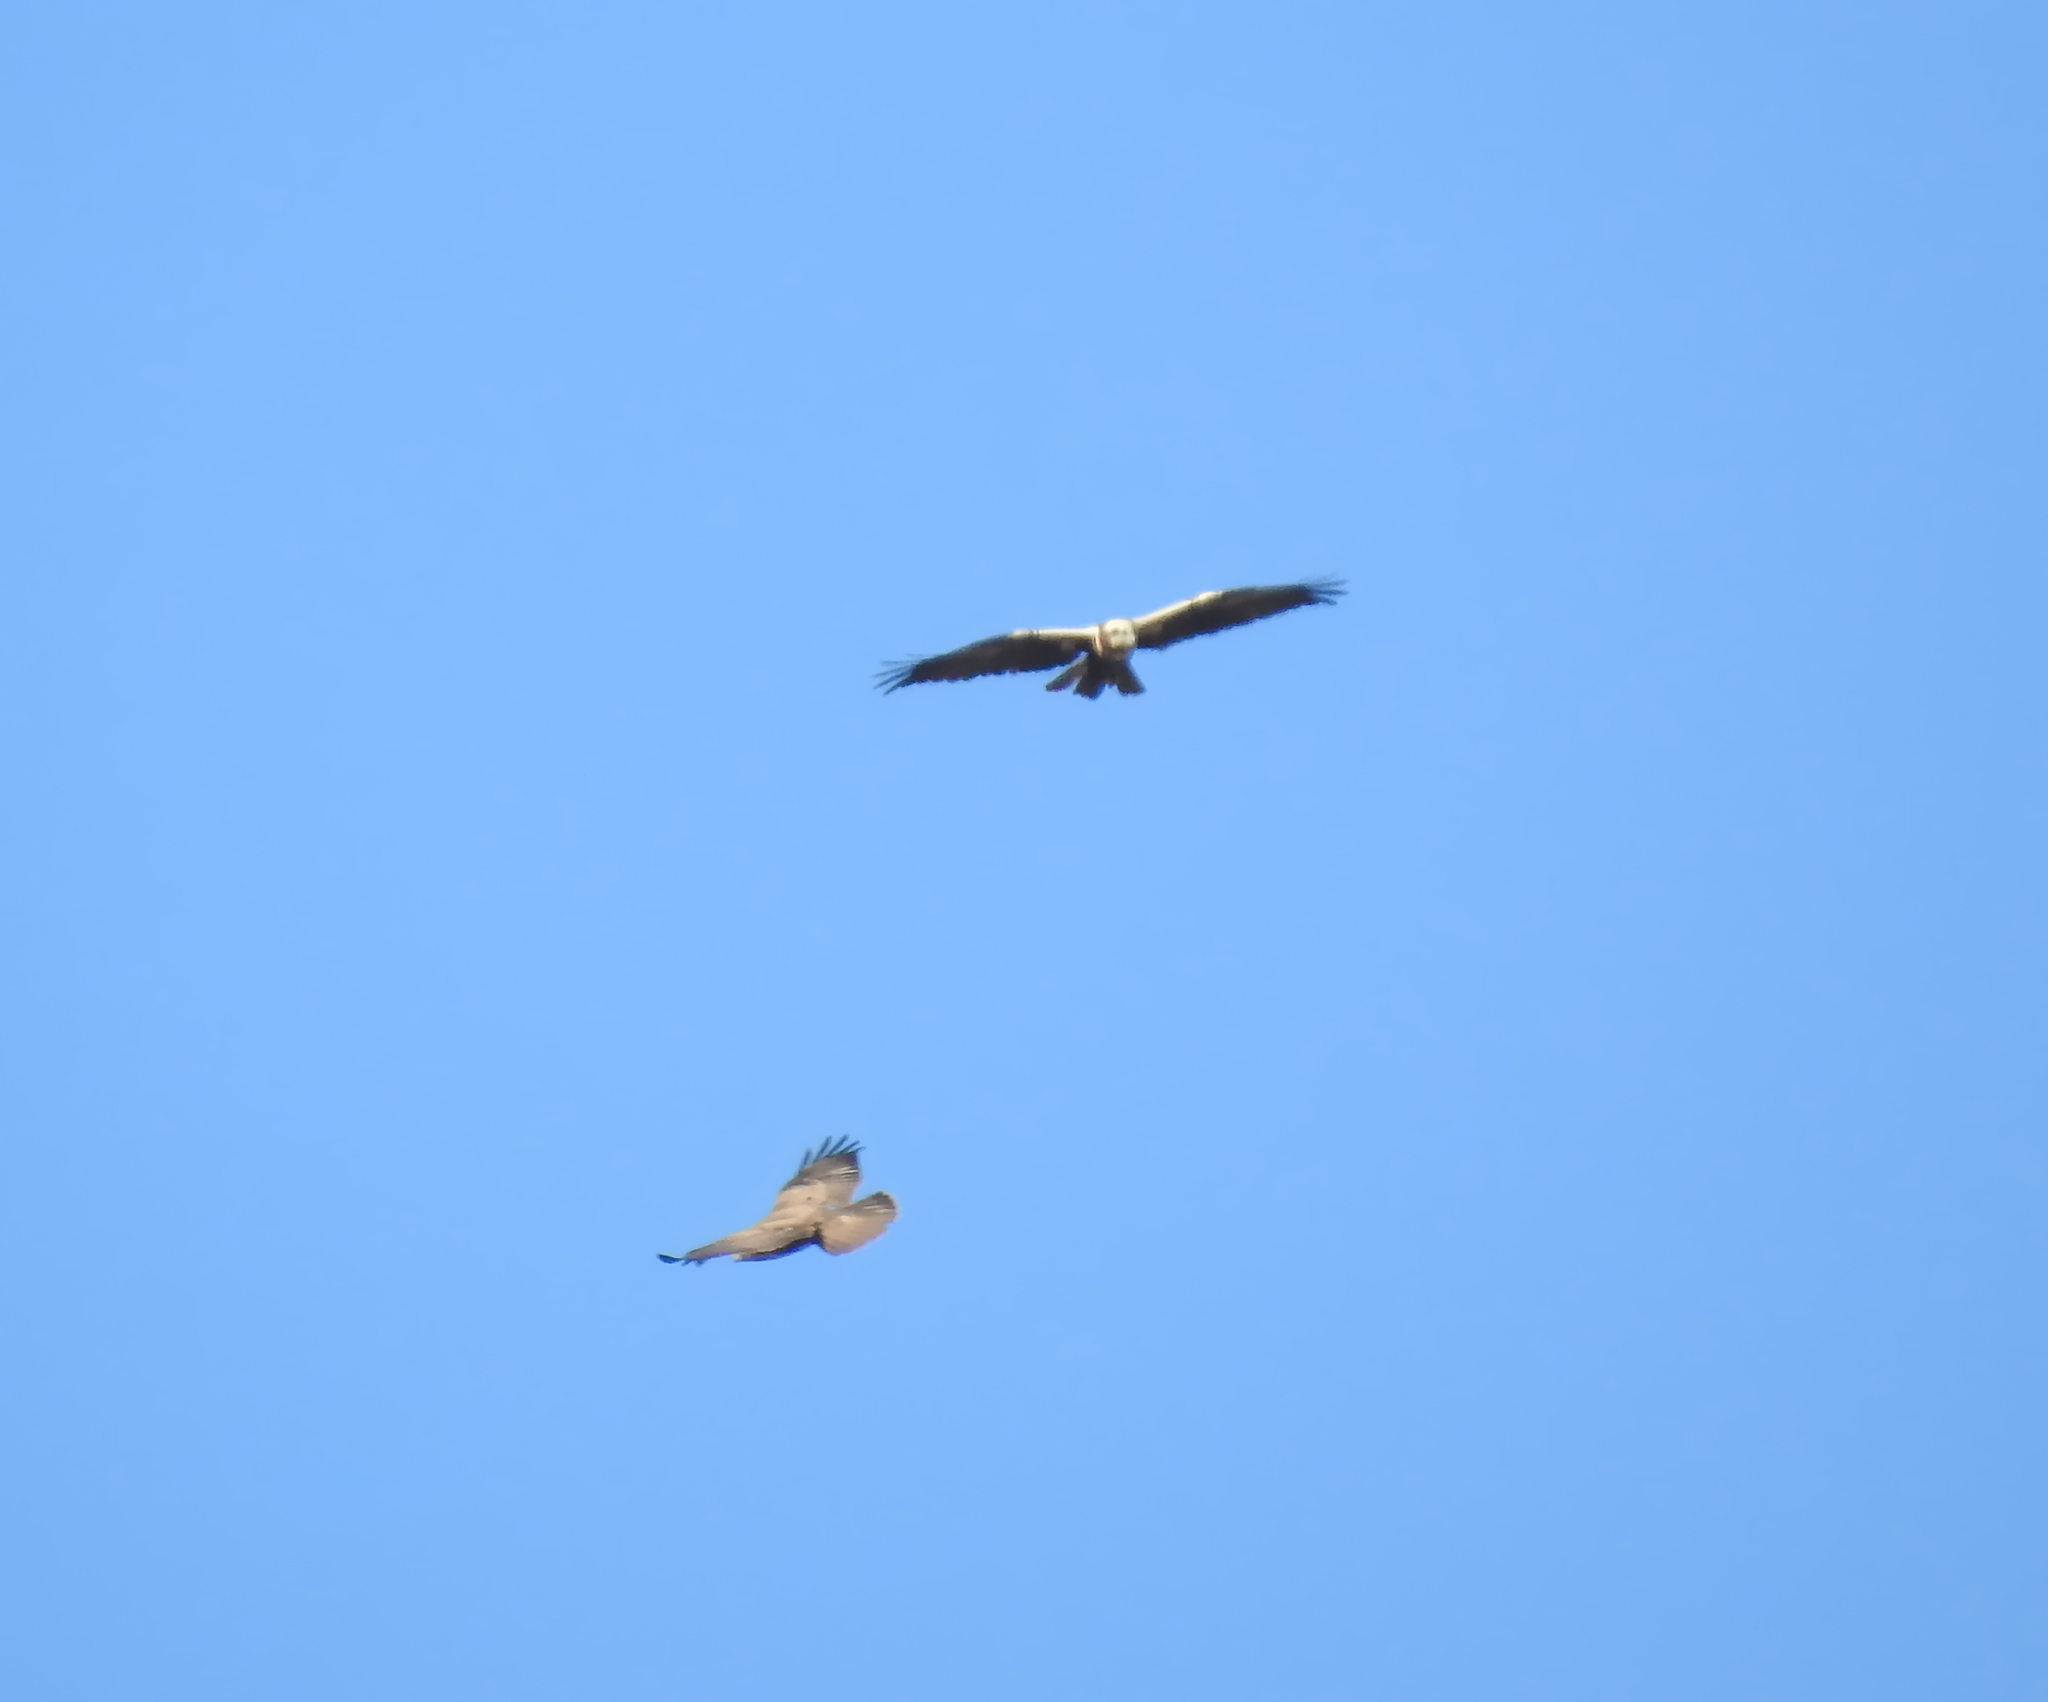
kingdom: Animalia
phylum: Chordata
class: Aves
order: Accipitriformes
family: Accipitridae
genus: Circus
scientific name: Circus aeruginosus
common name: Western marsh harrier
